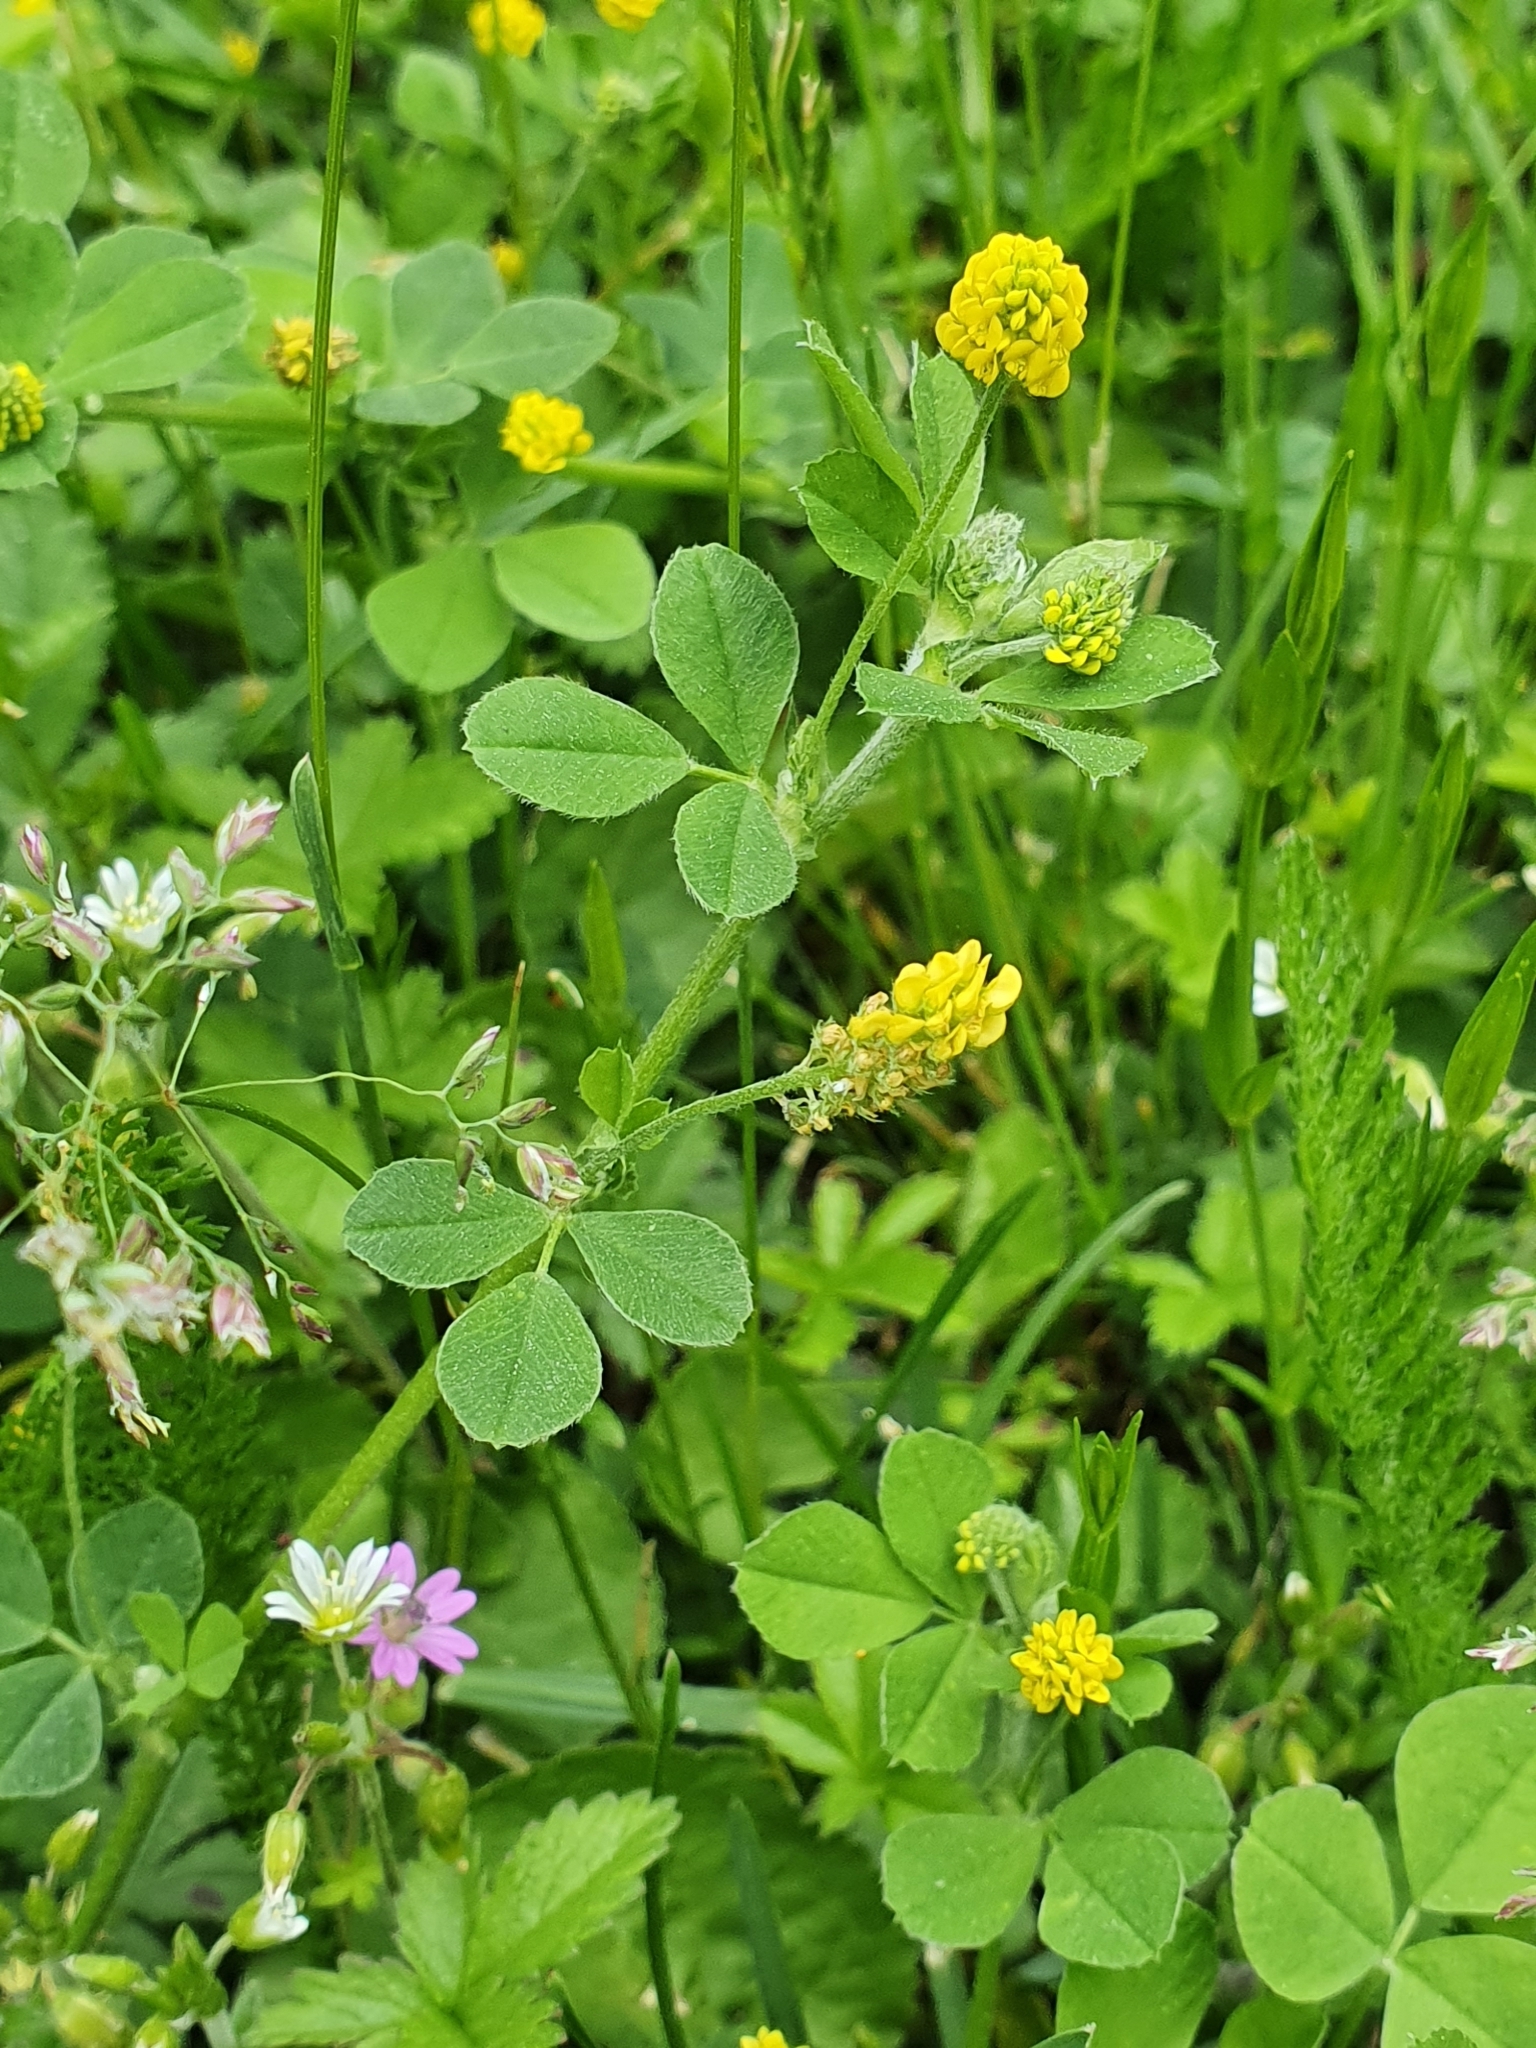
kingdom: Plantae
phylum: Tracheophyta
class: Magnoliopsida
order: Fabales
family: Fabaceae
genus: Medicago
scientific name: Medicago lupulina
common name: Black medick
